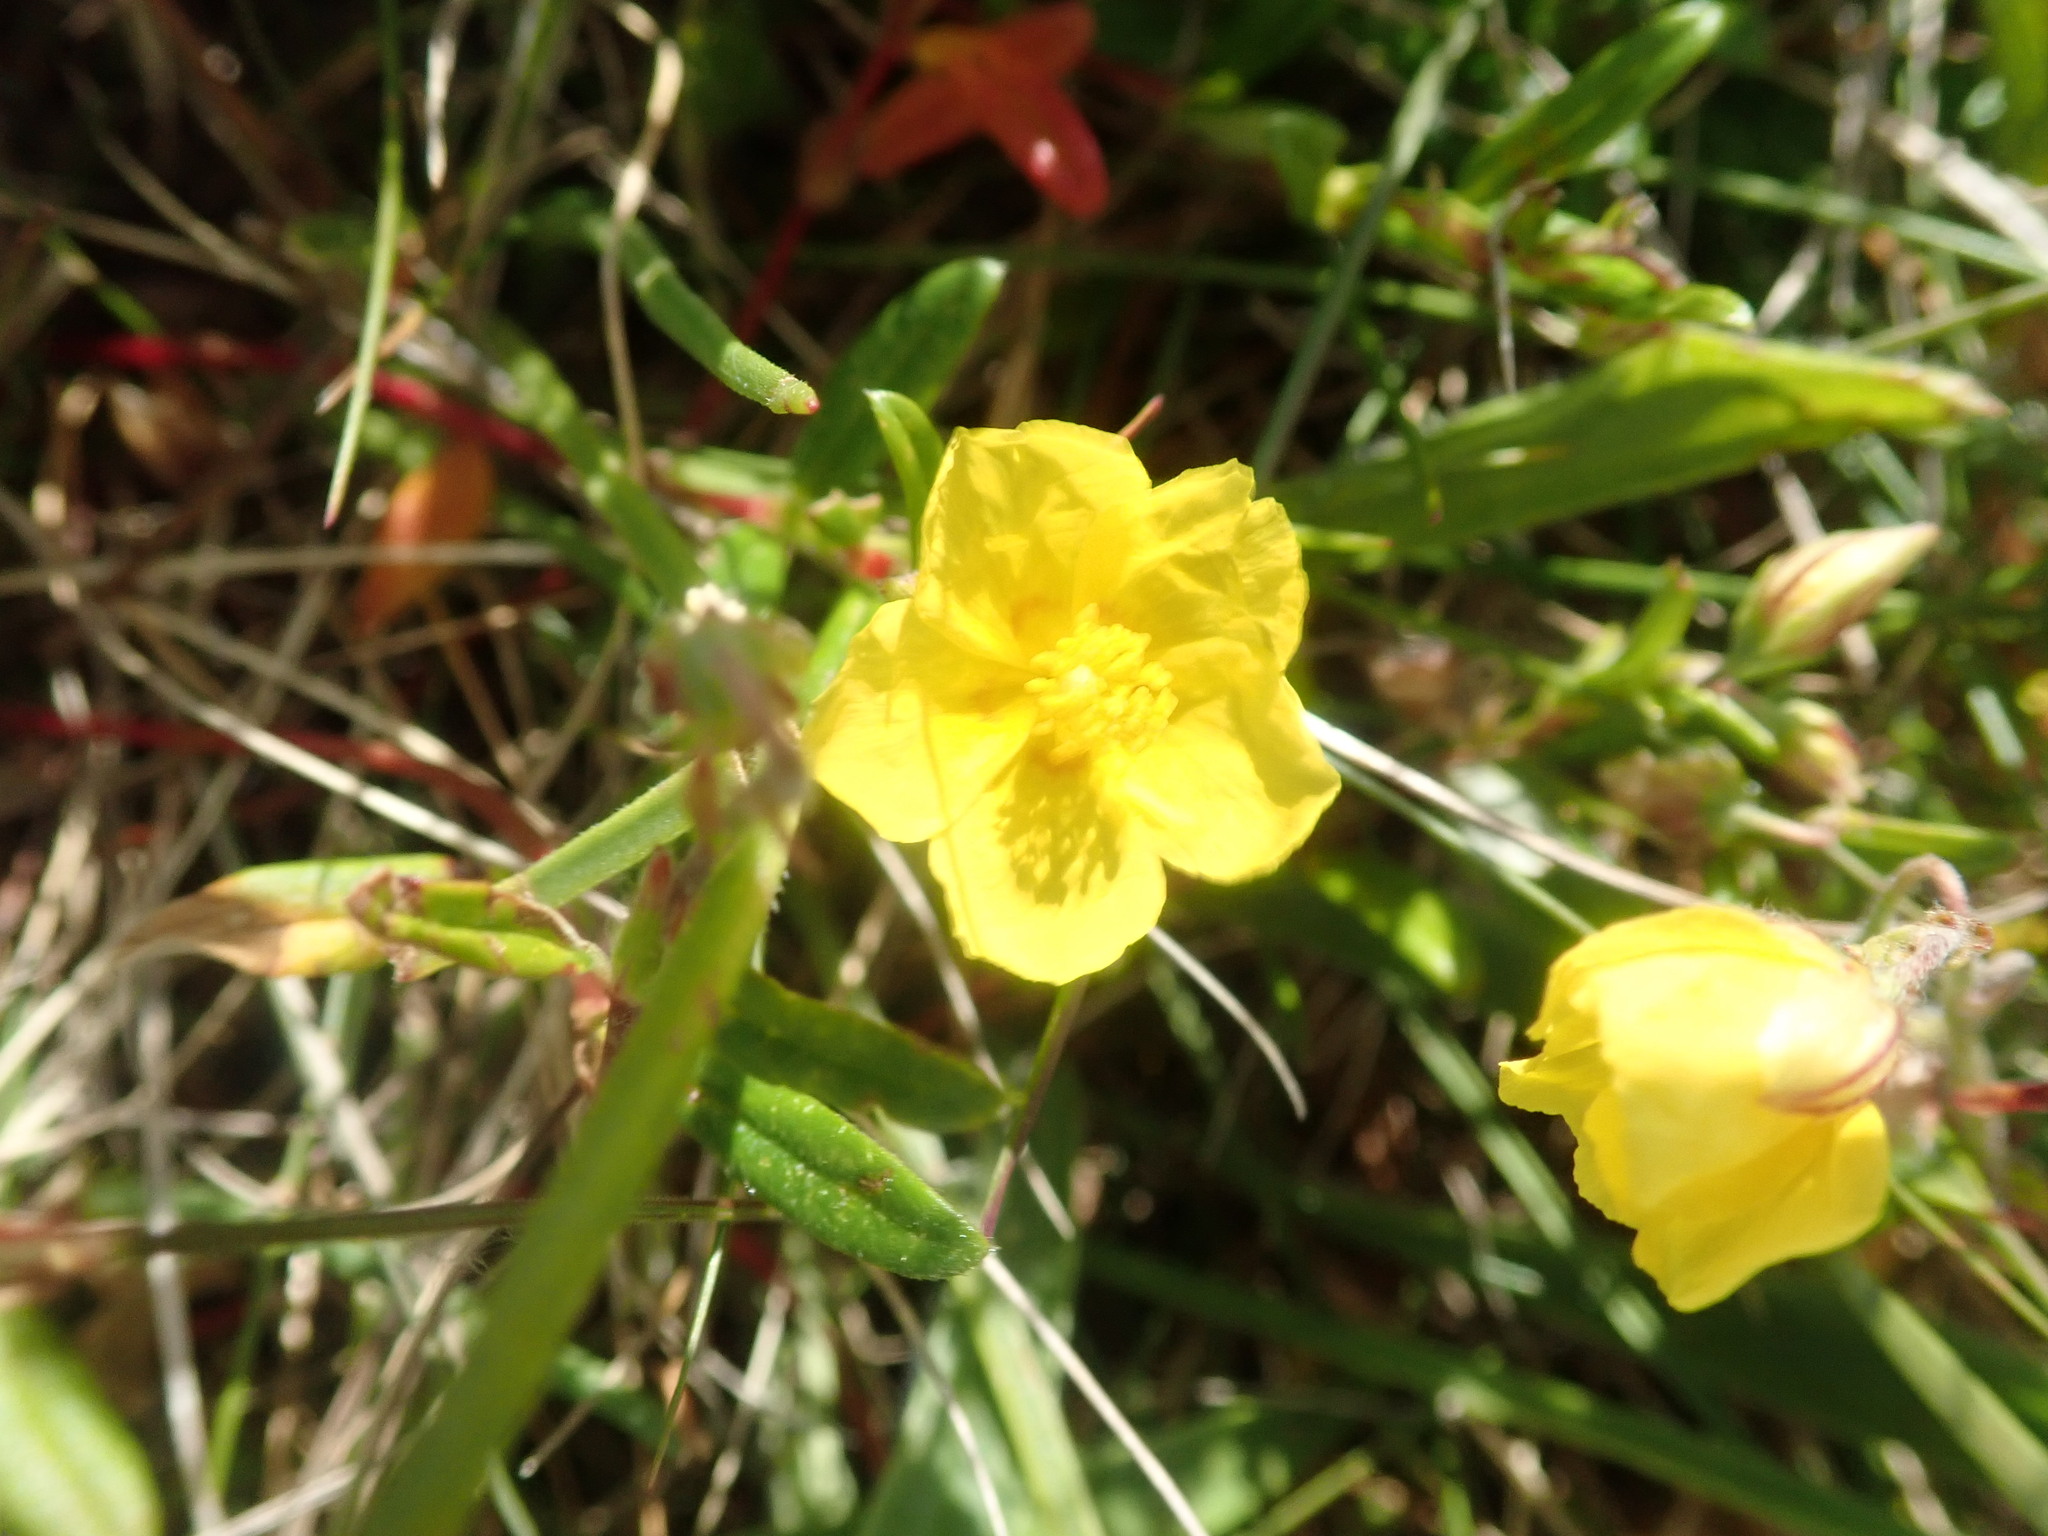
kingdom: Plantae
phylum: Tracheophyta
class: Magnoliopsida
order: Malvales
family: Cistaceae
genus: Helianthemum
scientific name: Helianthemum nummularium
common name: Common rock-rose
